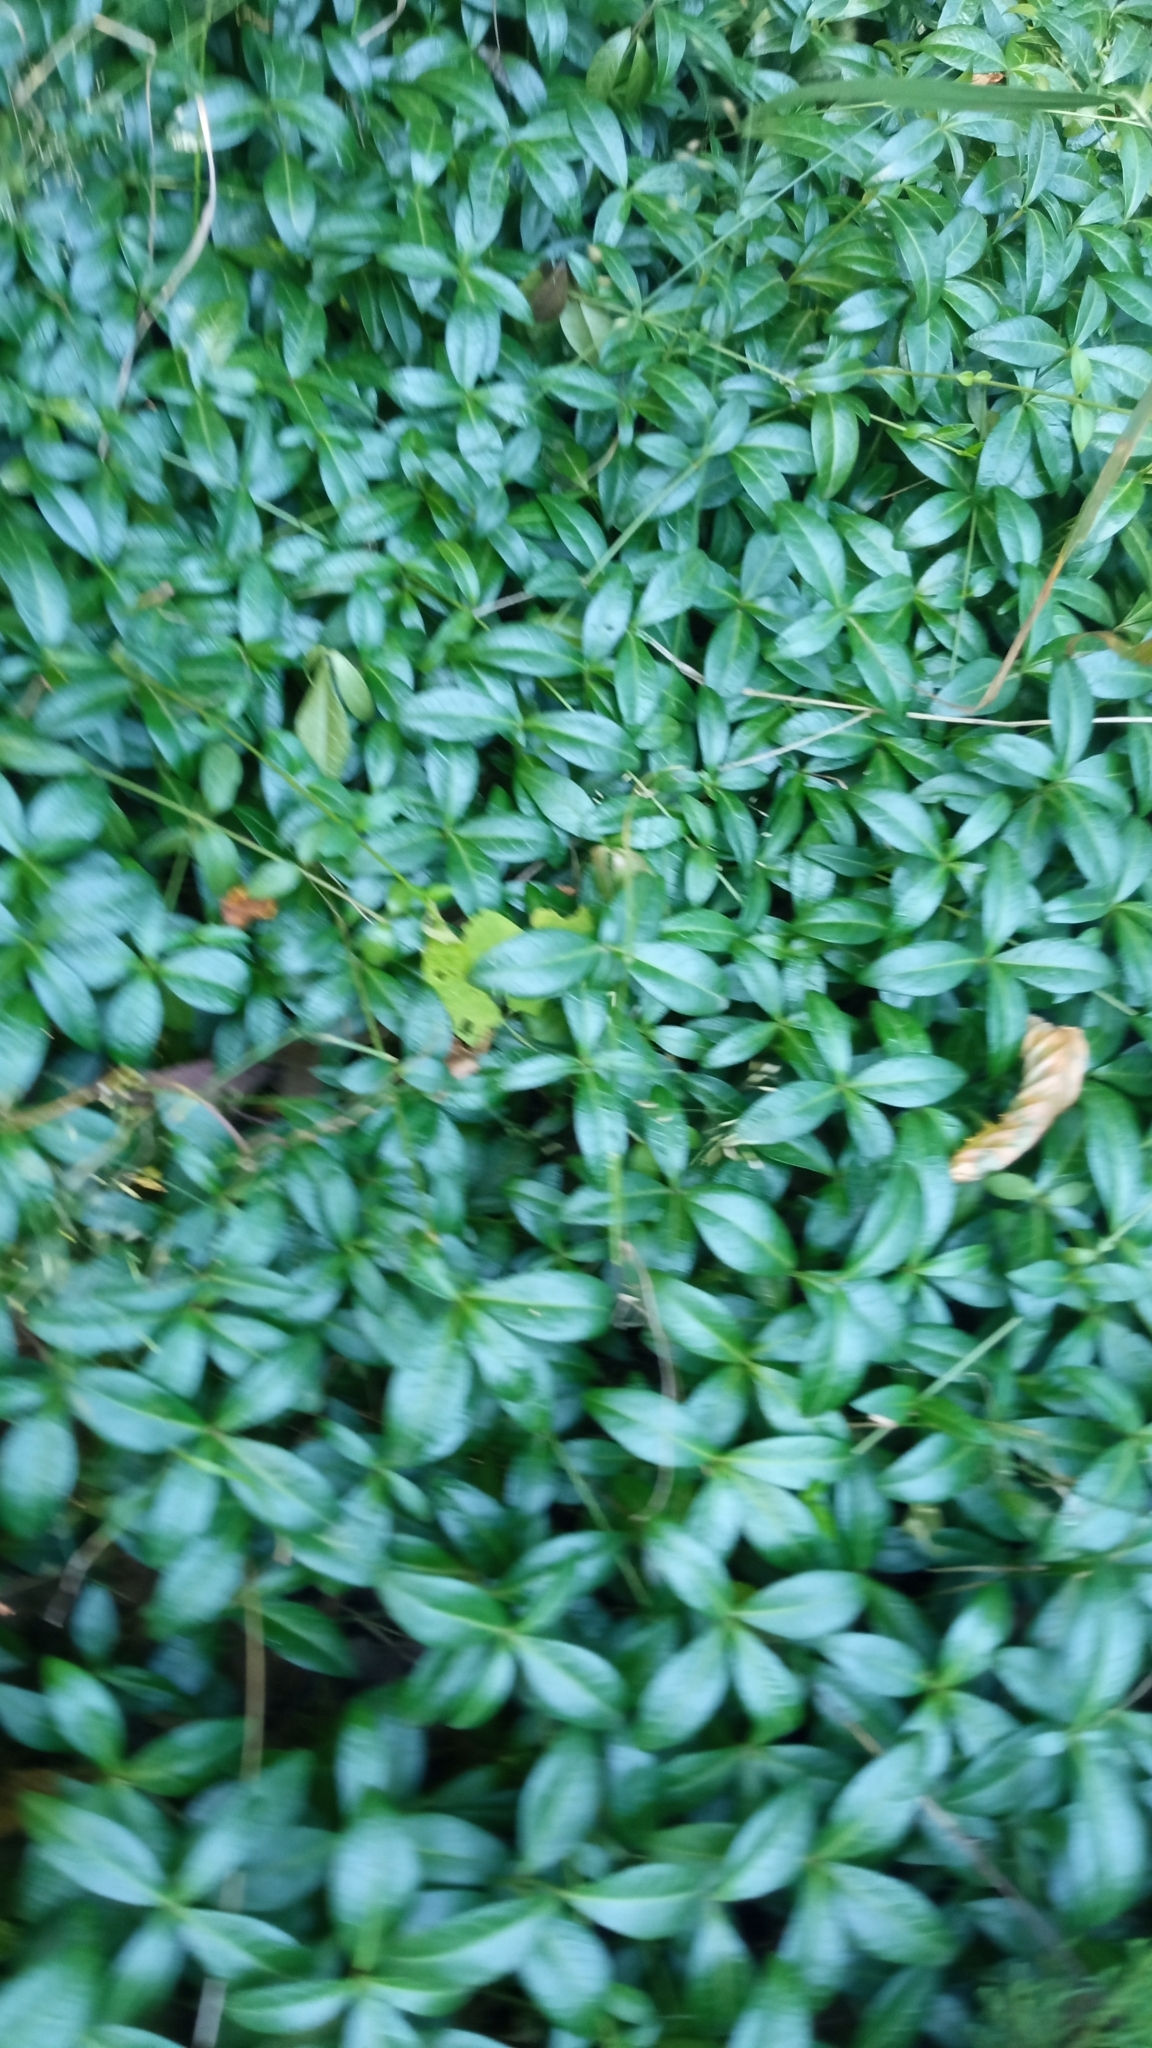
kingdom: Plantae
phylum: Tracheophyta
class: Magnoliopsida
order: Gentianales
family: Apocynaceae
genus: Vinca
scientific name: Vinca minor
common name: Lesser periwinkle
